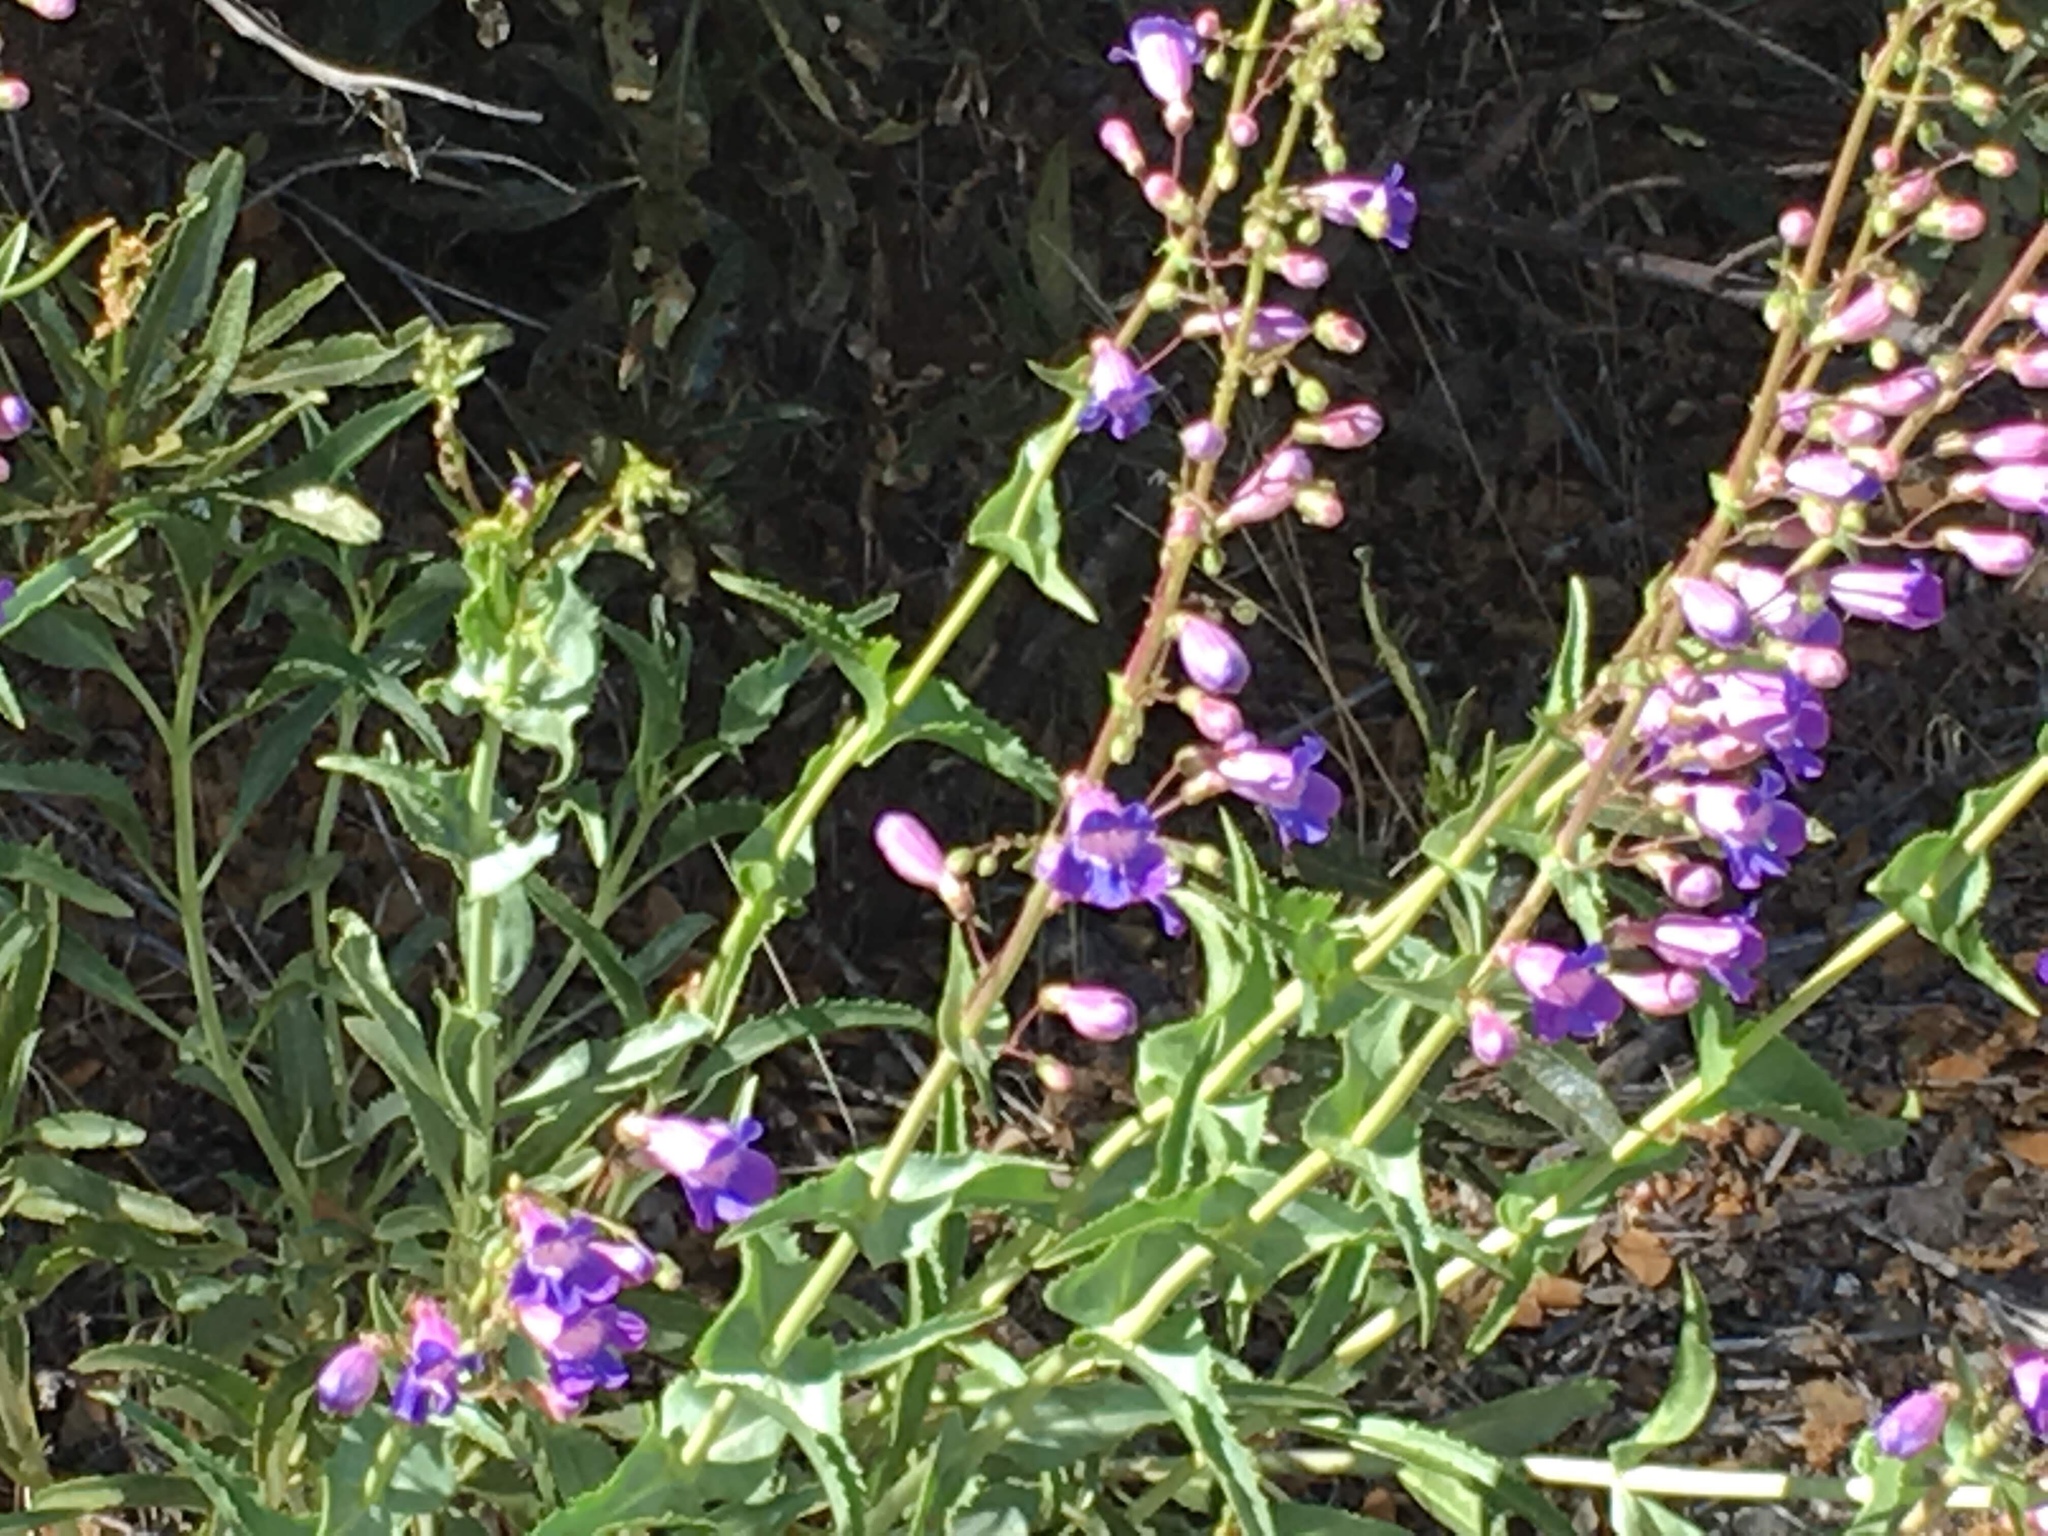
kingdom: Plantae
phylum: Tracheophyta
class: Magnoliopsida
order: Lamiales
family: Plantaginaceae
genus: Penstemon
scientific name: Penstemon spectabilis
